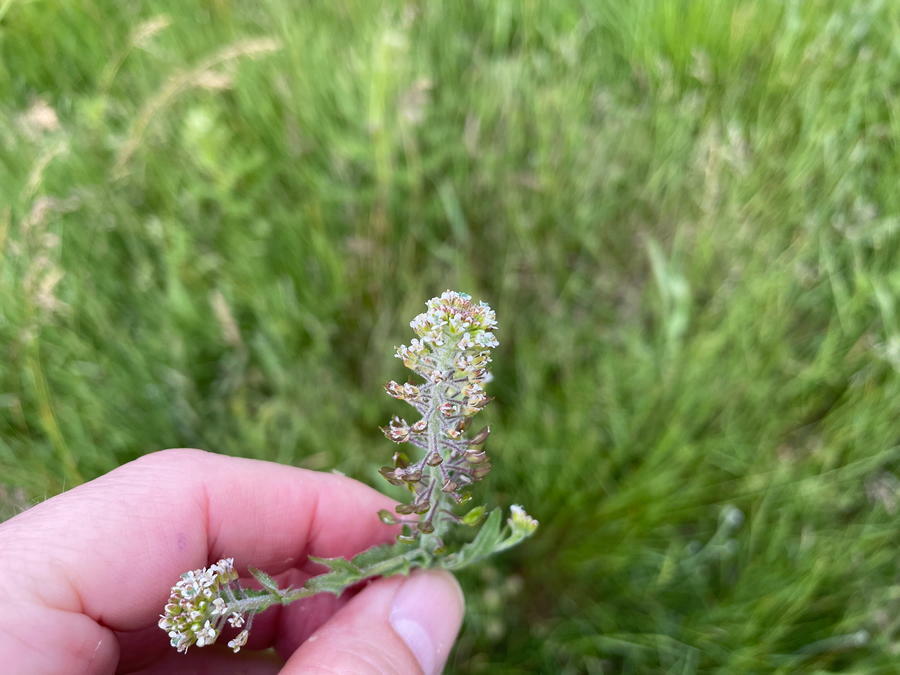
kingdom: Plantae
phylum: Tracheophyta
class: Magnoliopsida
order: Brassicales
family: Brassicaceae
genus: Lepidium
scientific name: Lepidium campestre
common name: Field pepperwort
